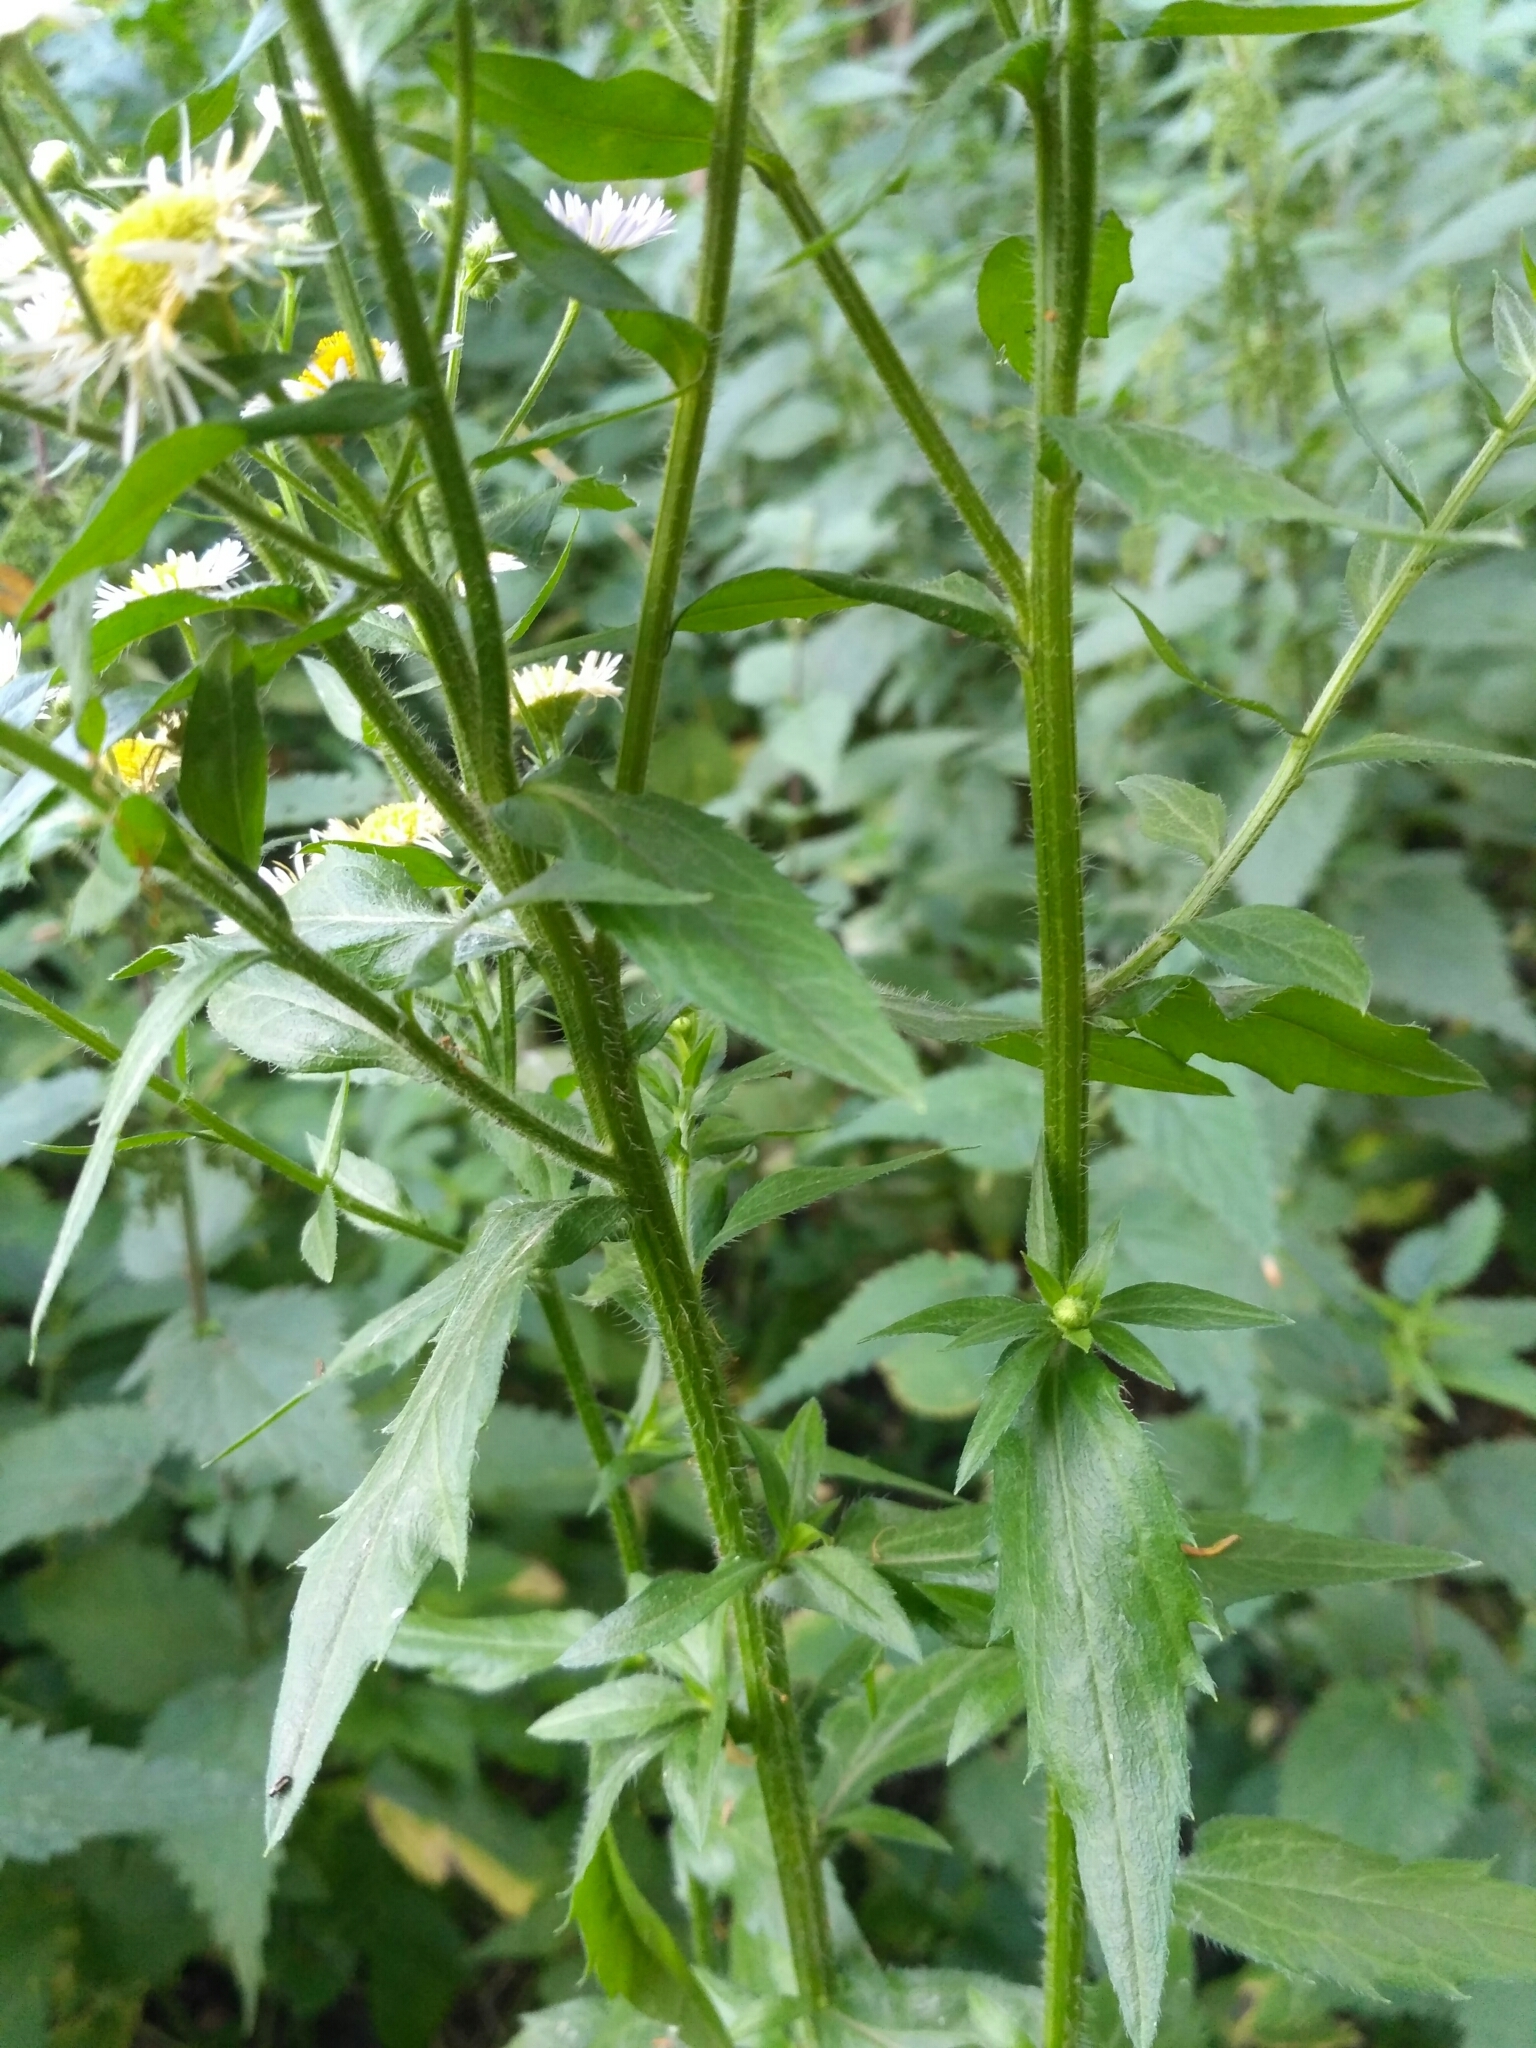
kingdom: Plantae
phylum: Tracheophyta
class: Magnoliopsida
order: Asterales
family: Asteraceae
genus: Erigeron
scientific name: Erigeron annuus
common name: Tall fleabane
